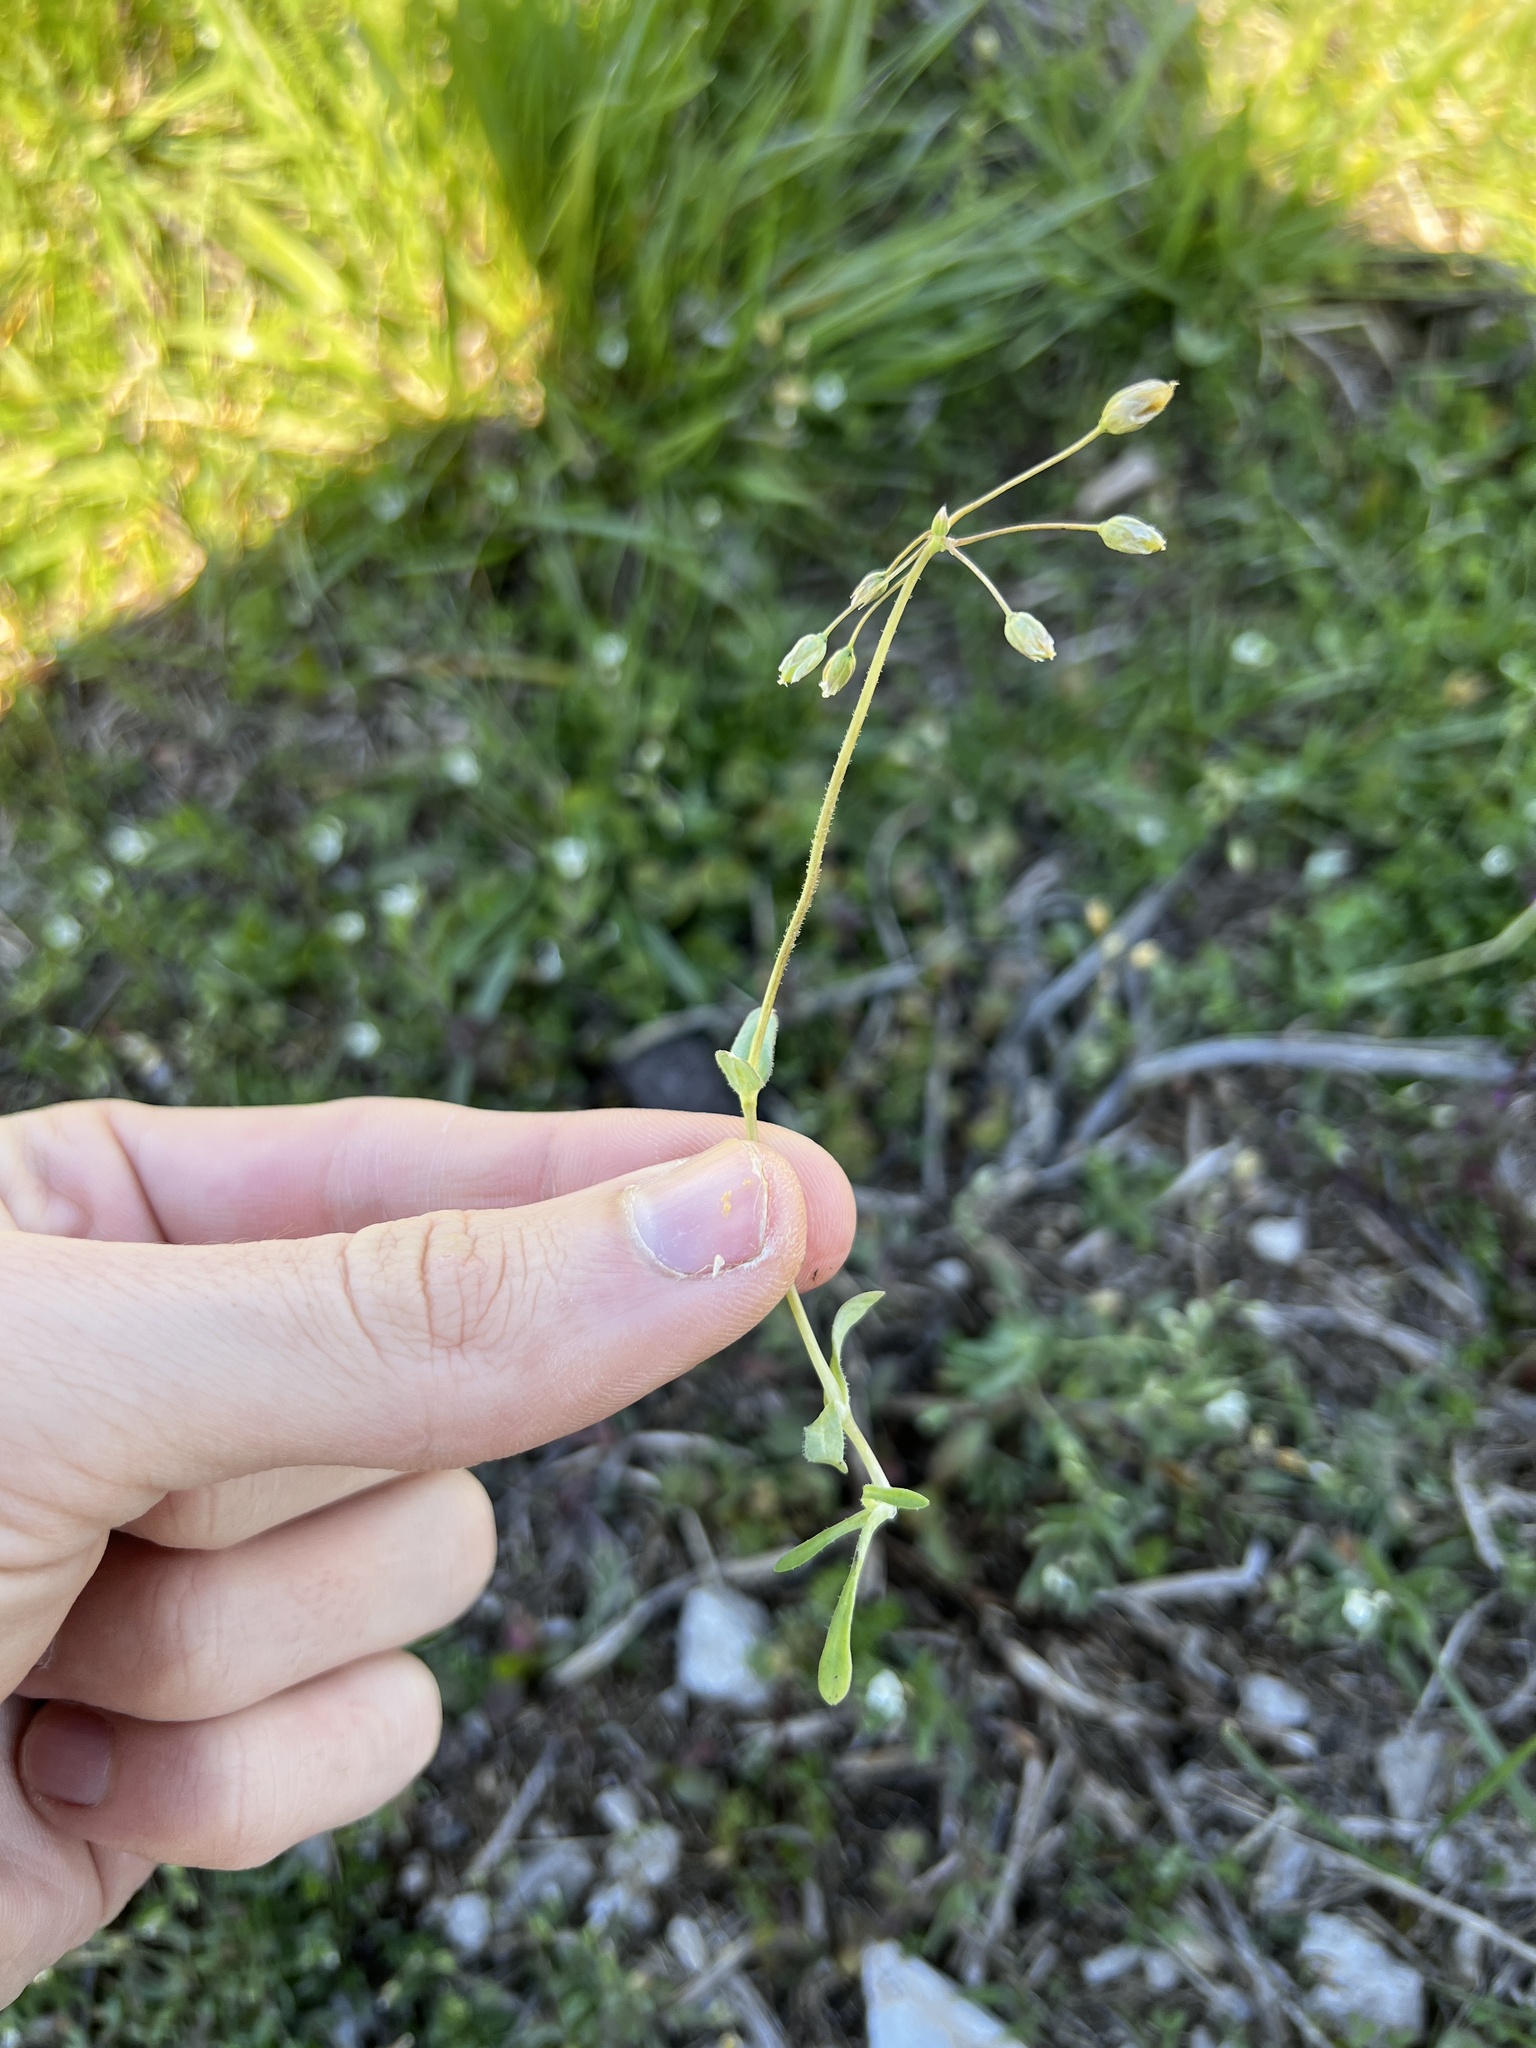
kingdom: Plantae
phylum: Tracheophyta
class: Magnoliopsida
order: Caryophyllales
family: Caryophyllaceae
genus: Holosteum
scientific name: Holosteum umbellatum
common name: Jagged chickweed
